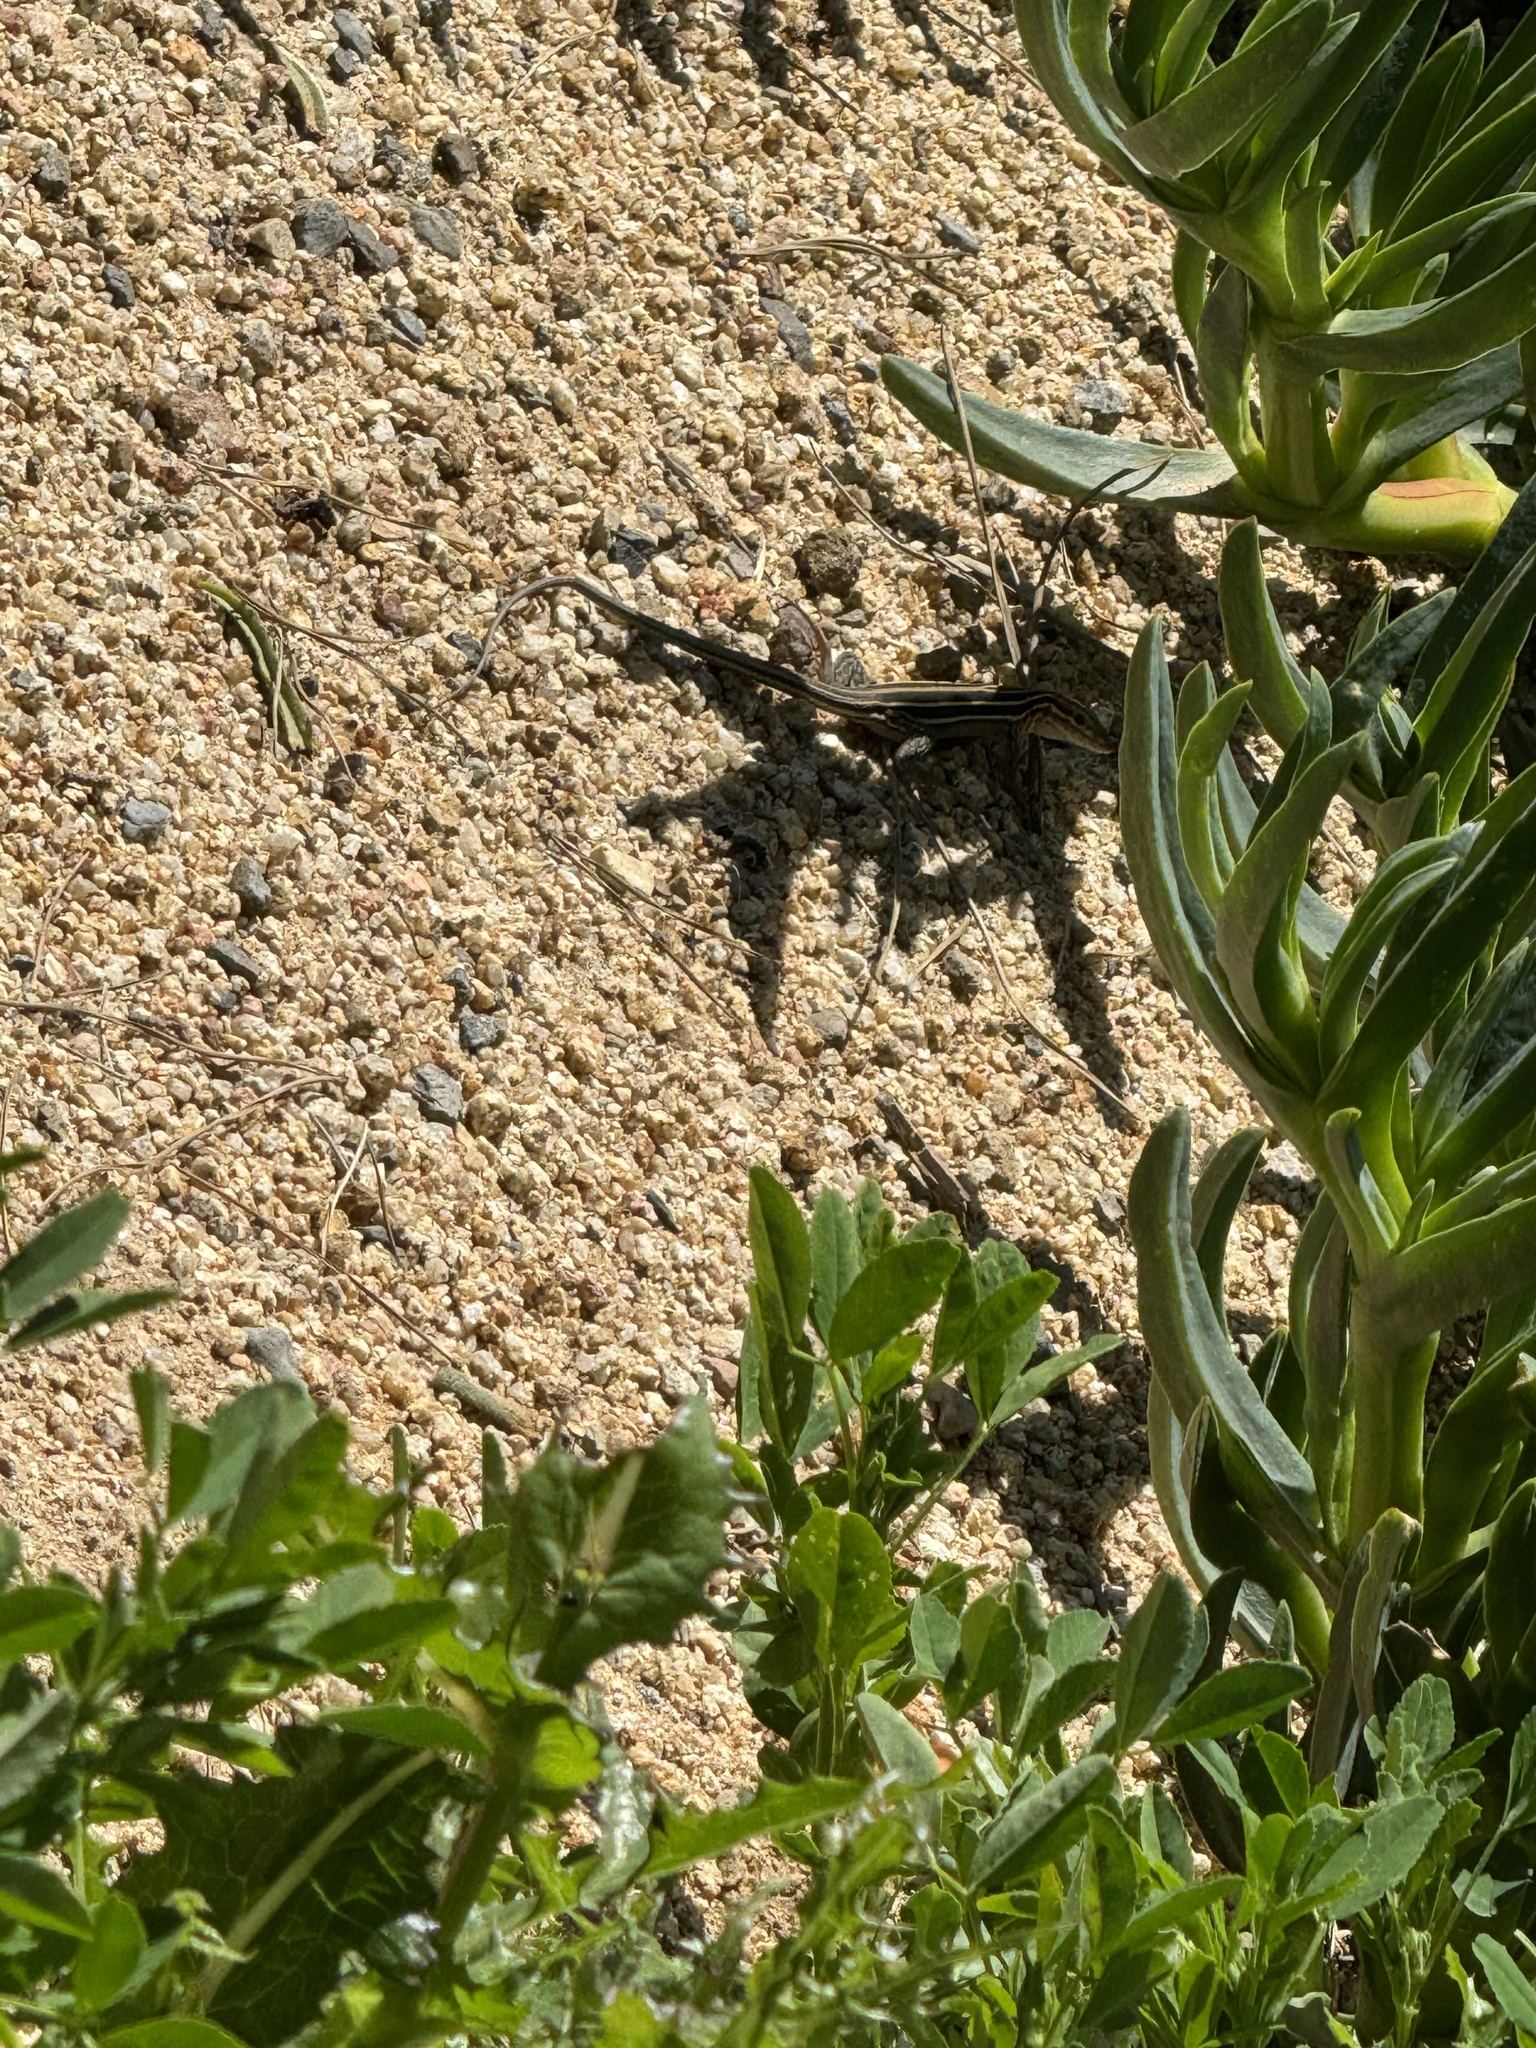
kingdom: Animalia
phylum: Chordata
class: Squamata
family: Teiidae
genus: Aspidoscelis
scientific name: Aspidoscelis hyperythrus
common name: Orange-throated race-runner
